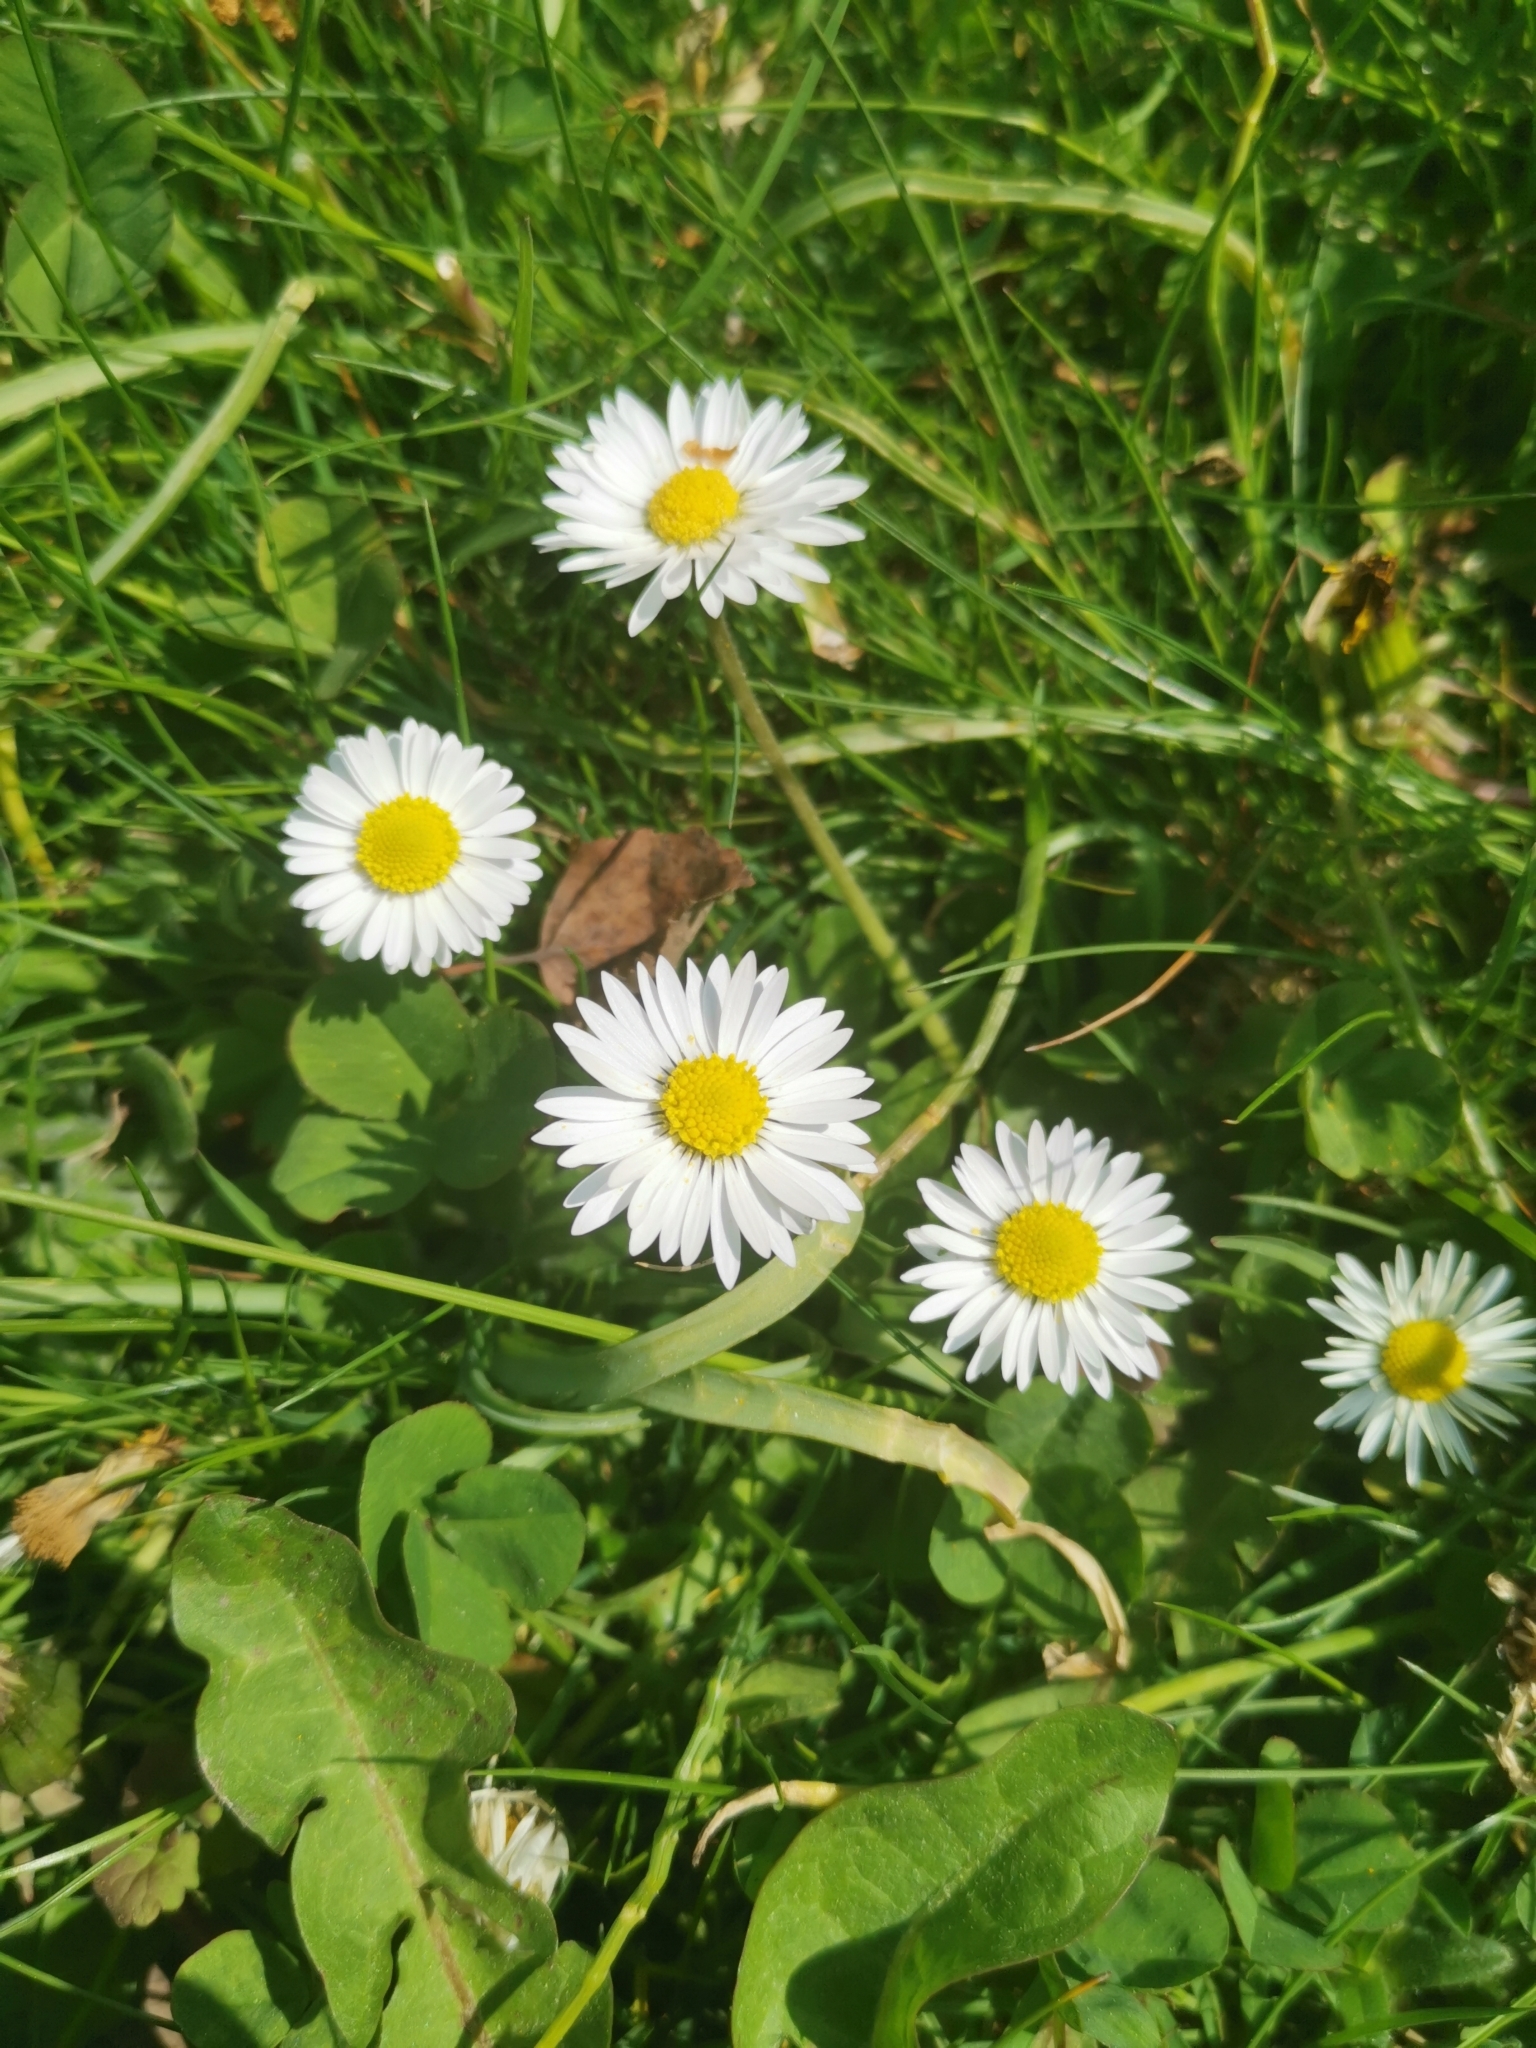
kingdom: Plantae
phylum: Tracheophyta
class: Magnoliopsida
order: Asterales
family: Asteraceae
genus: Bellis
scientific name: Bellis perennis
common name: Lawndaisy
